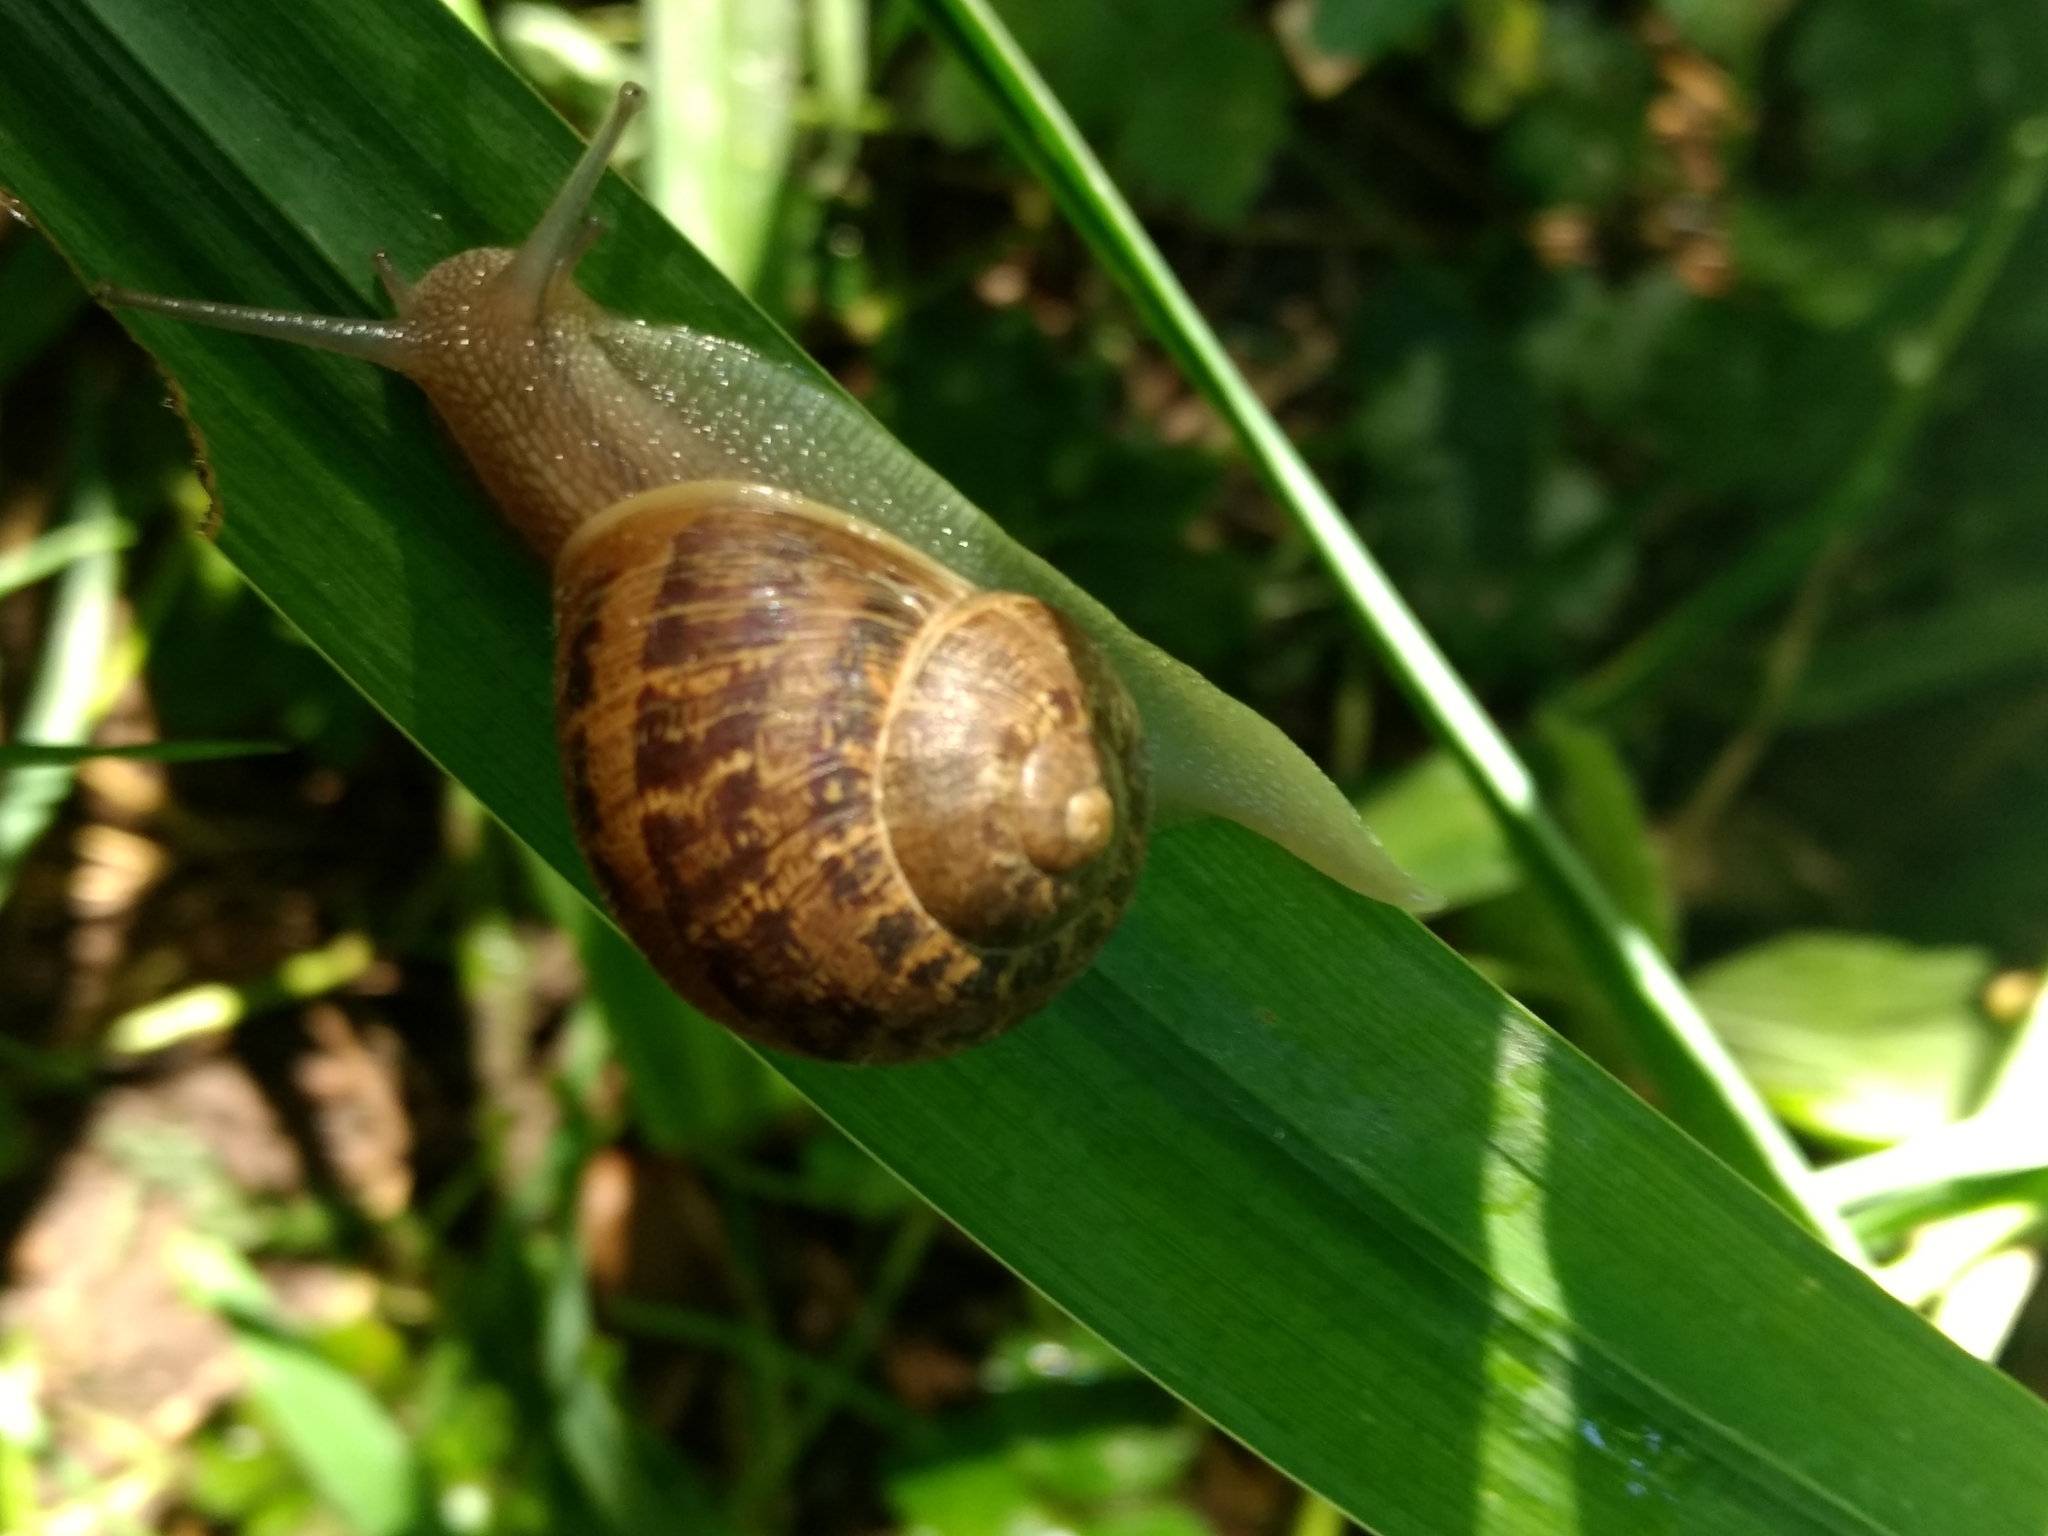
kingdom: Animalia
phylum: Mollusca
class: Gastropoda
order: Stylommatophora
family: Helicidae
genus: Cornu
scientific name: Cornu aspersum
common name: Brown garden snail
